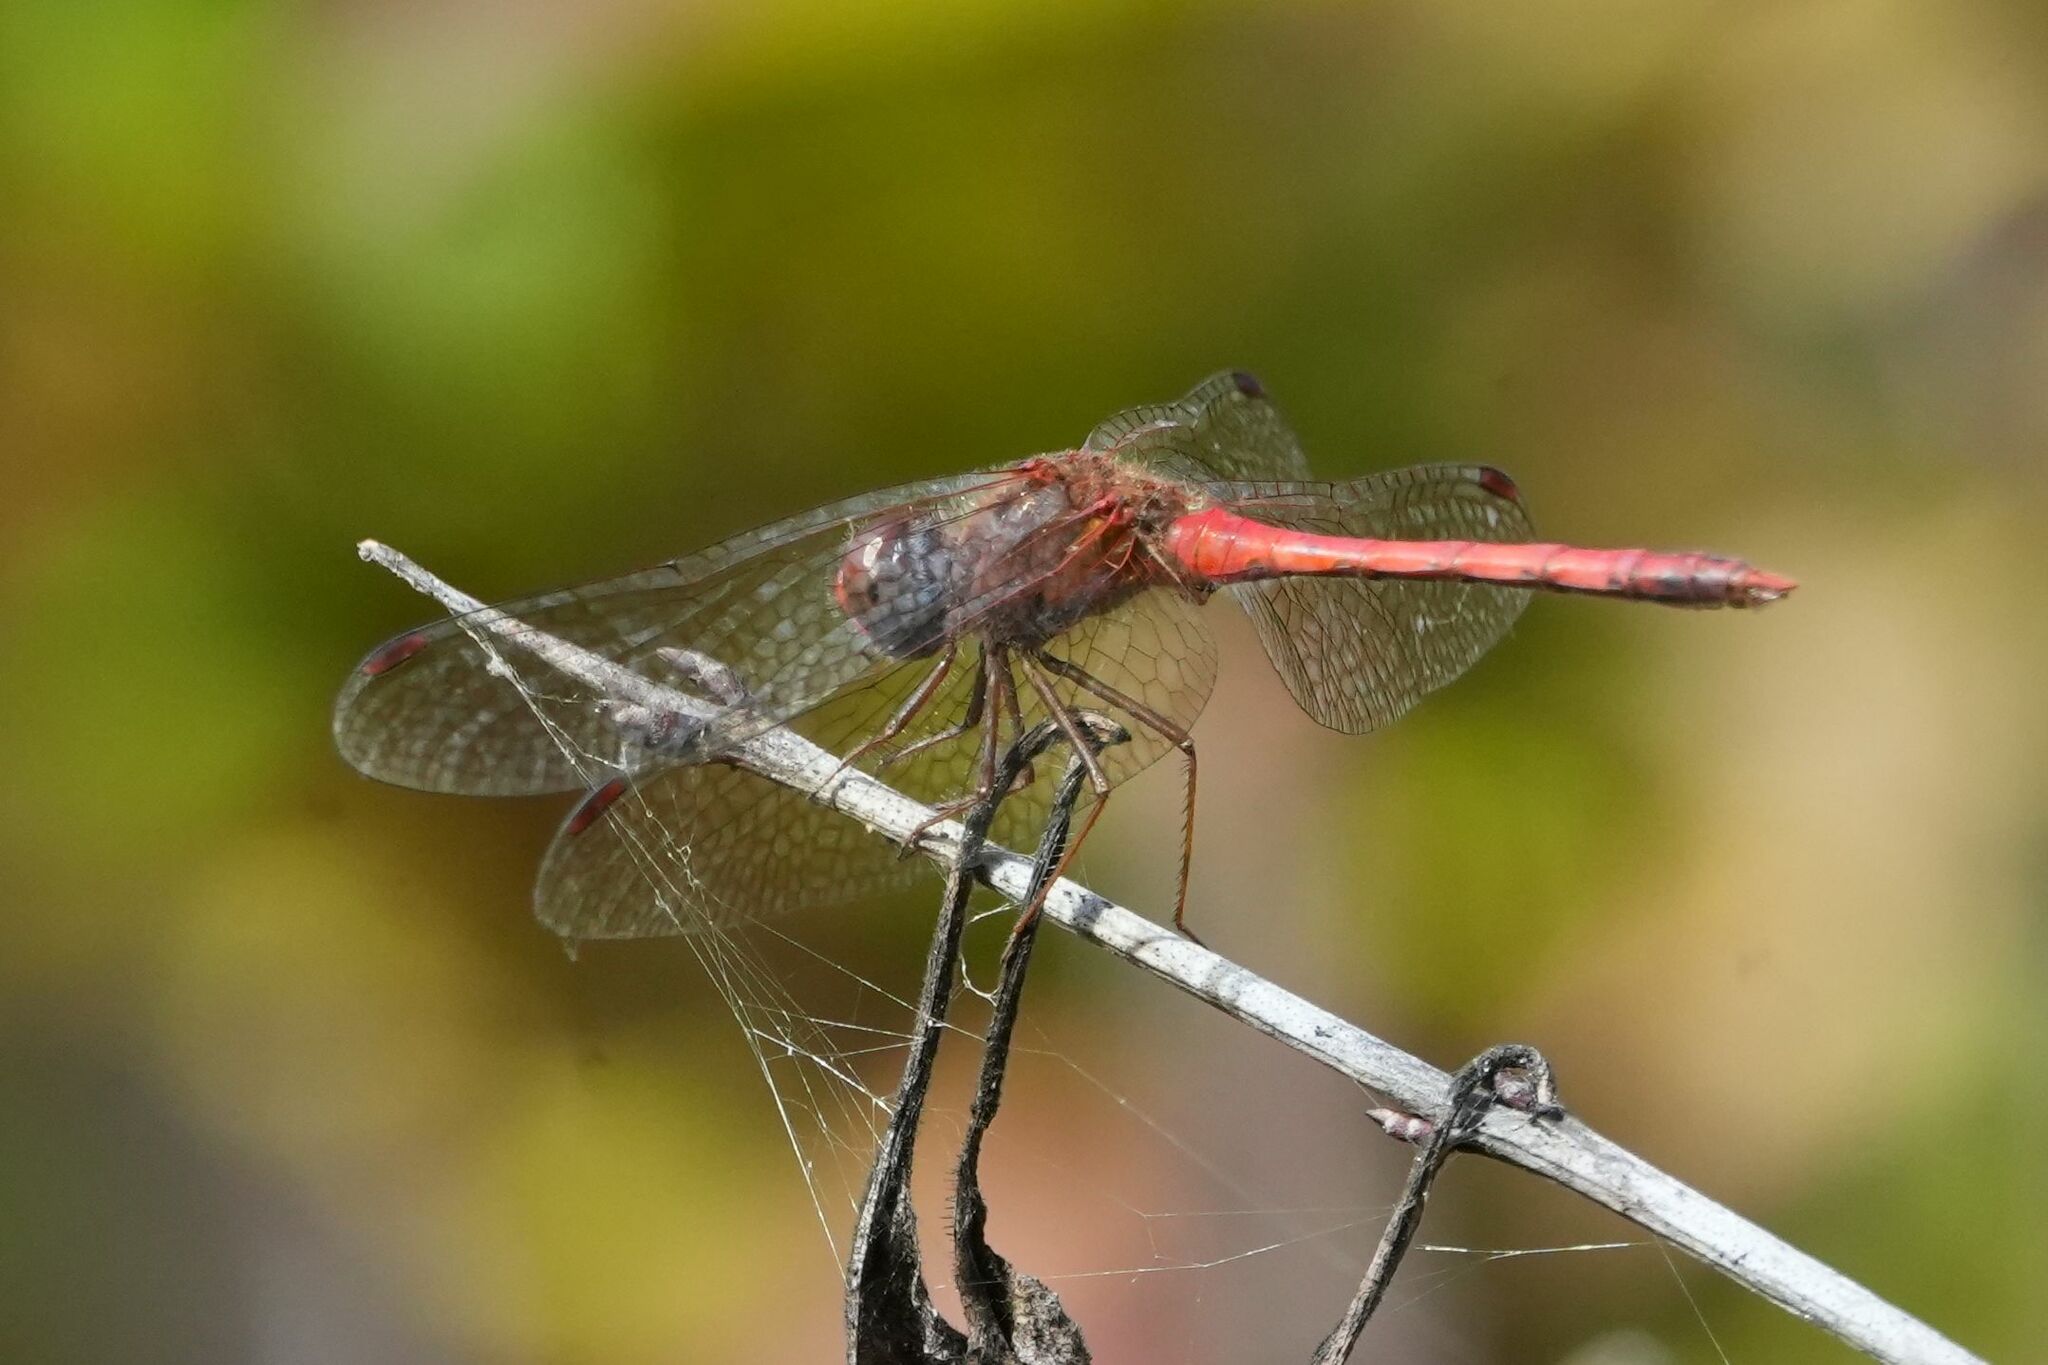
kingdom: Animalia
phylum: Arthropoda
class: Insecta
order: Odonata
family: Libellulidae
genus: Sympetrum
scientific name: Sympetrum vicinum
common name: Autumn meadowhawk
